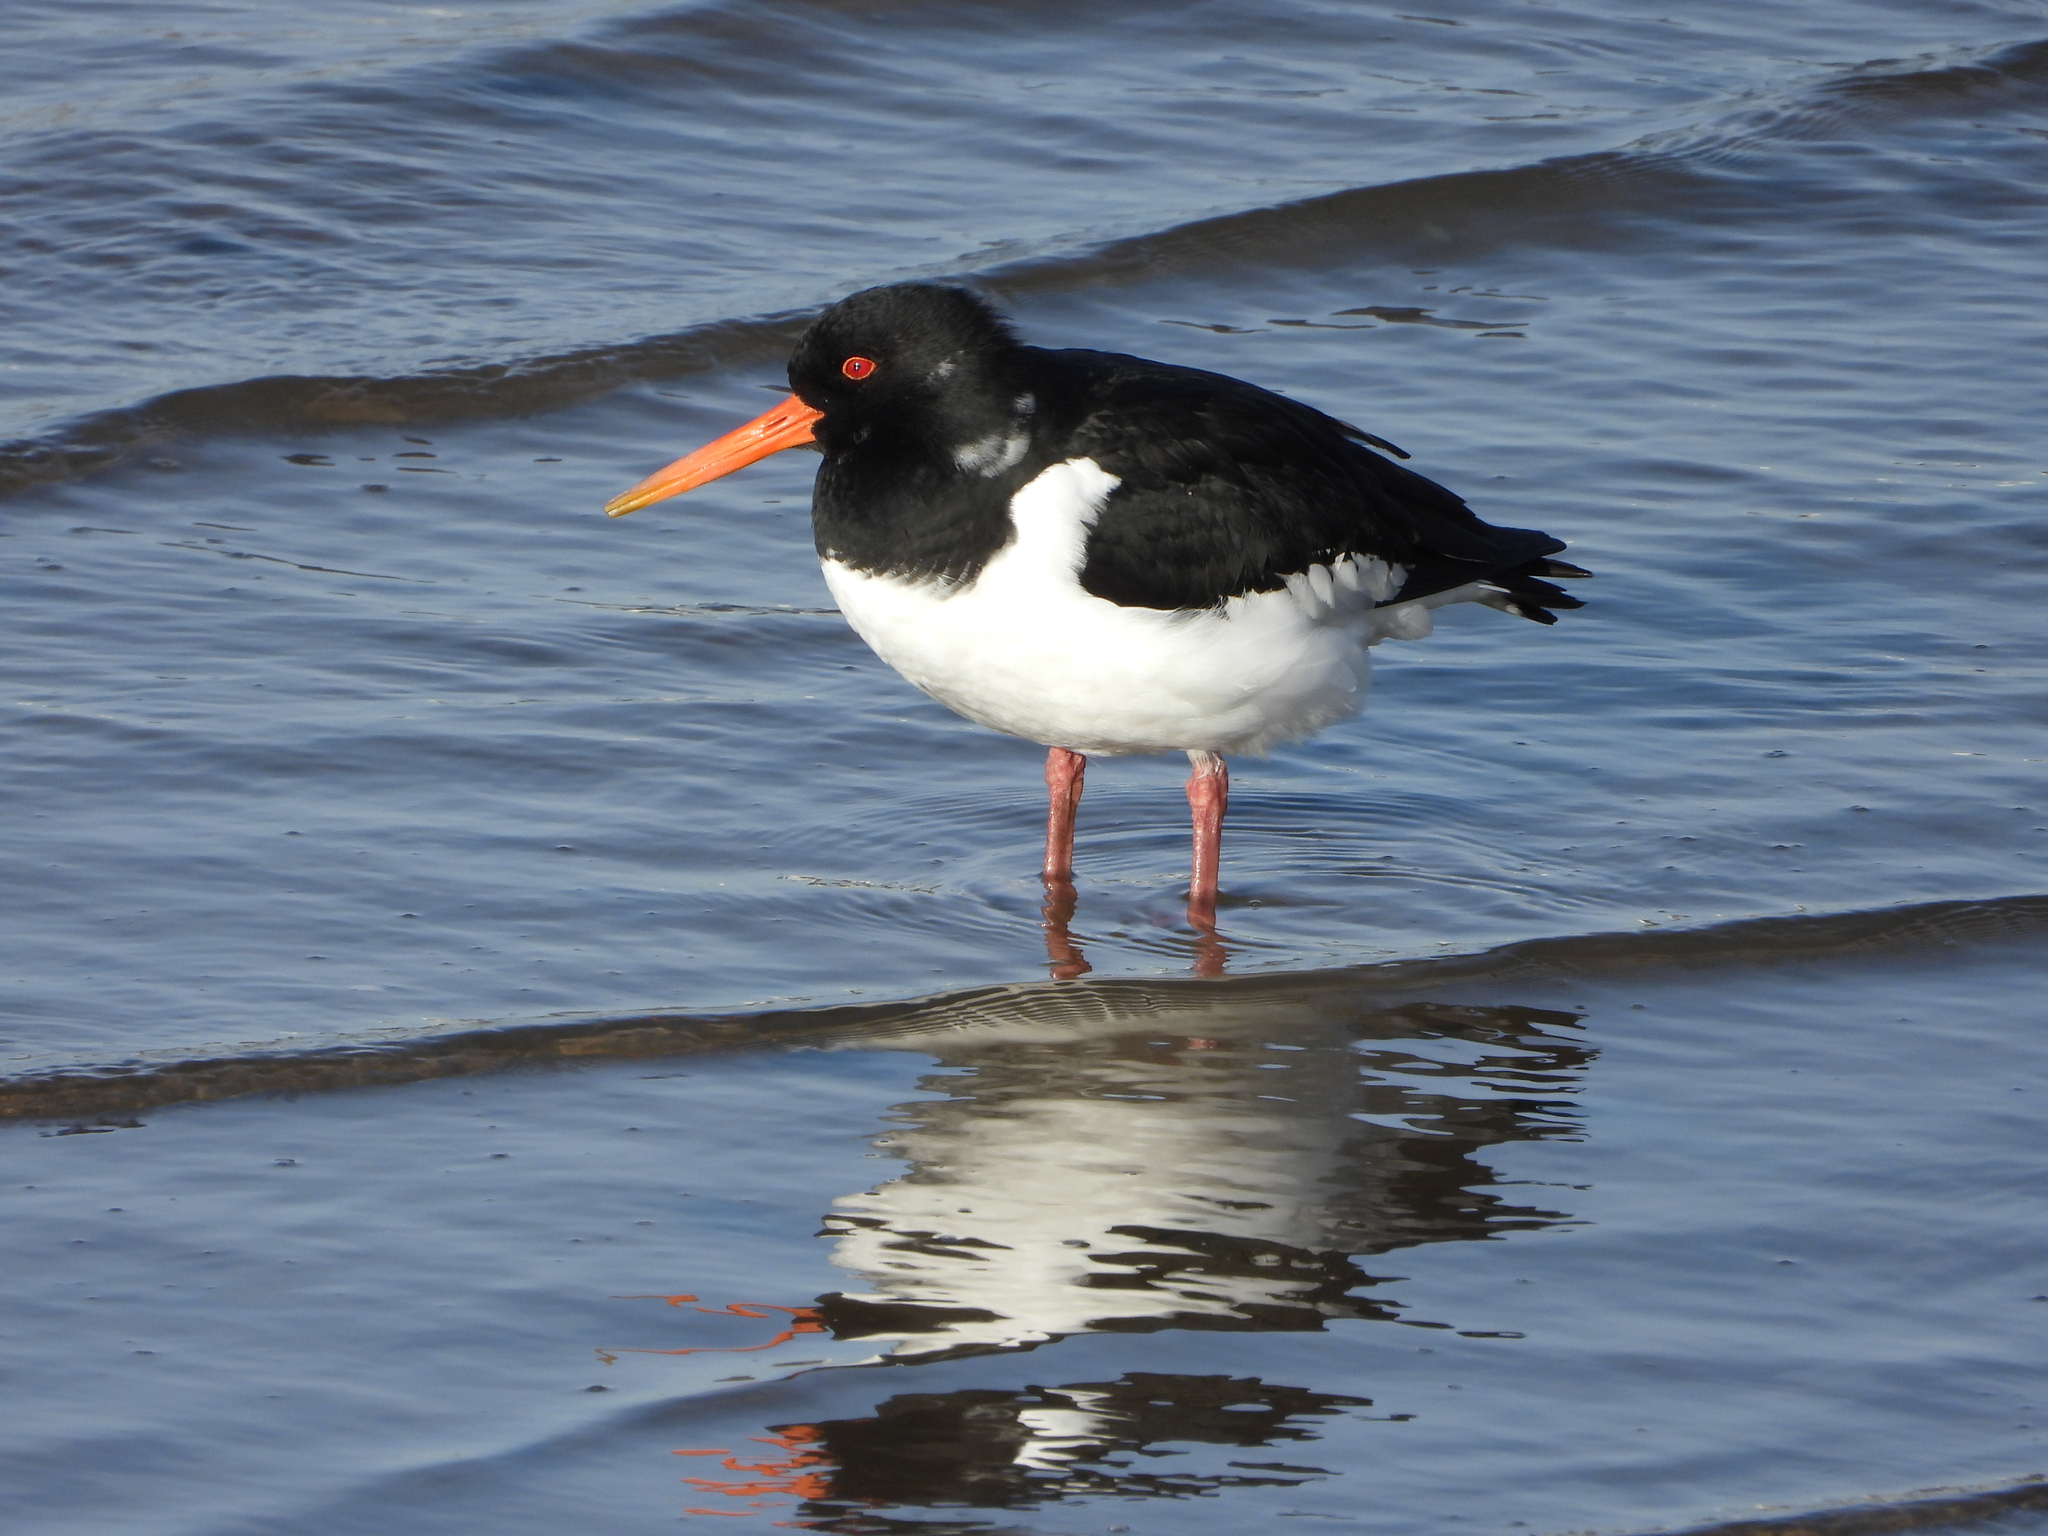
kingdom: Animalia
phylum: Chordata
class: Aves
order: Charadriiformes
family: Haematopodidae
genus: Haematopus
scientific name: Haematopus ostralegus
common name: Eurasian oystercatcher
